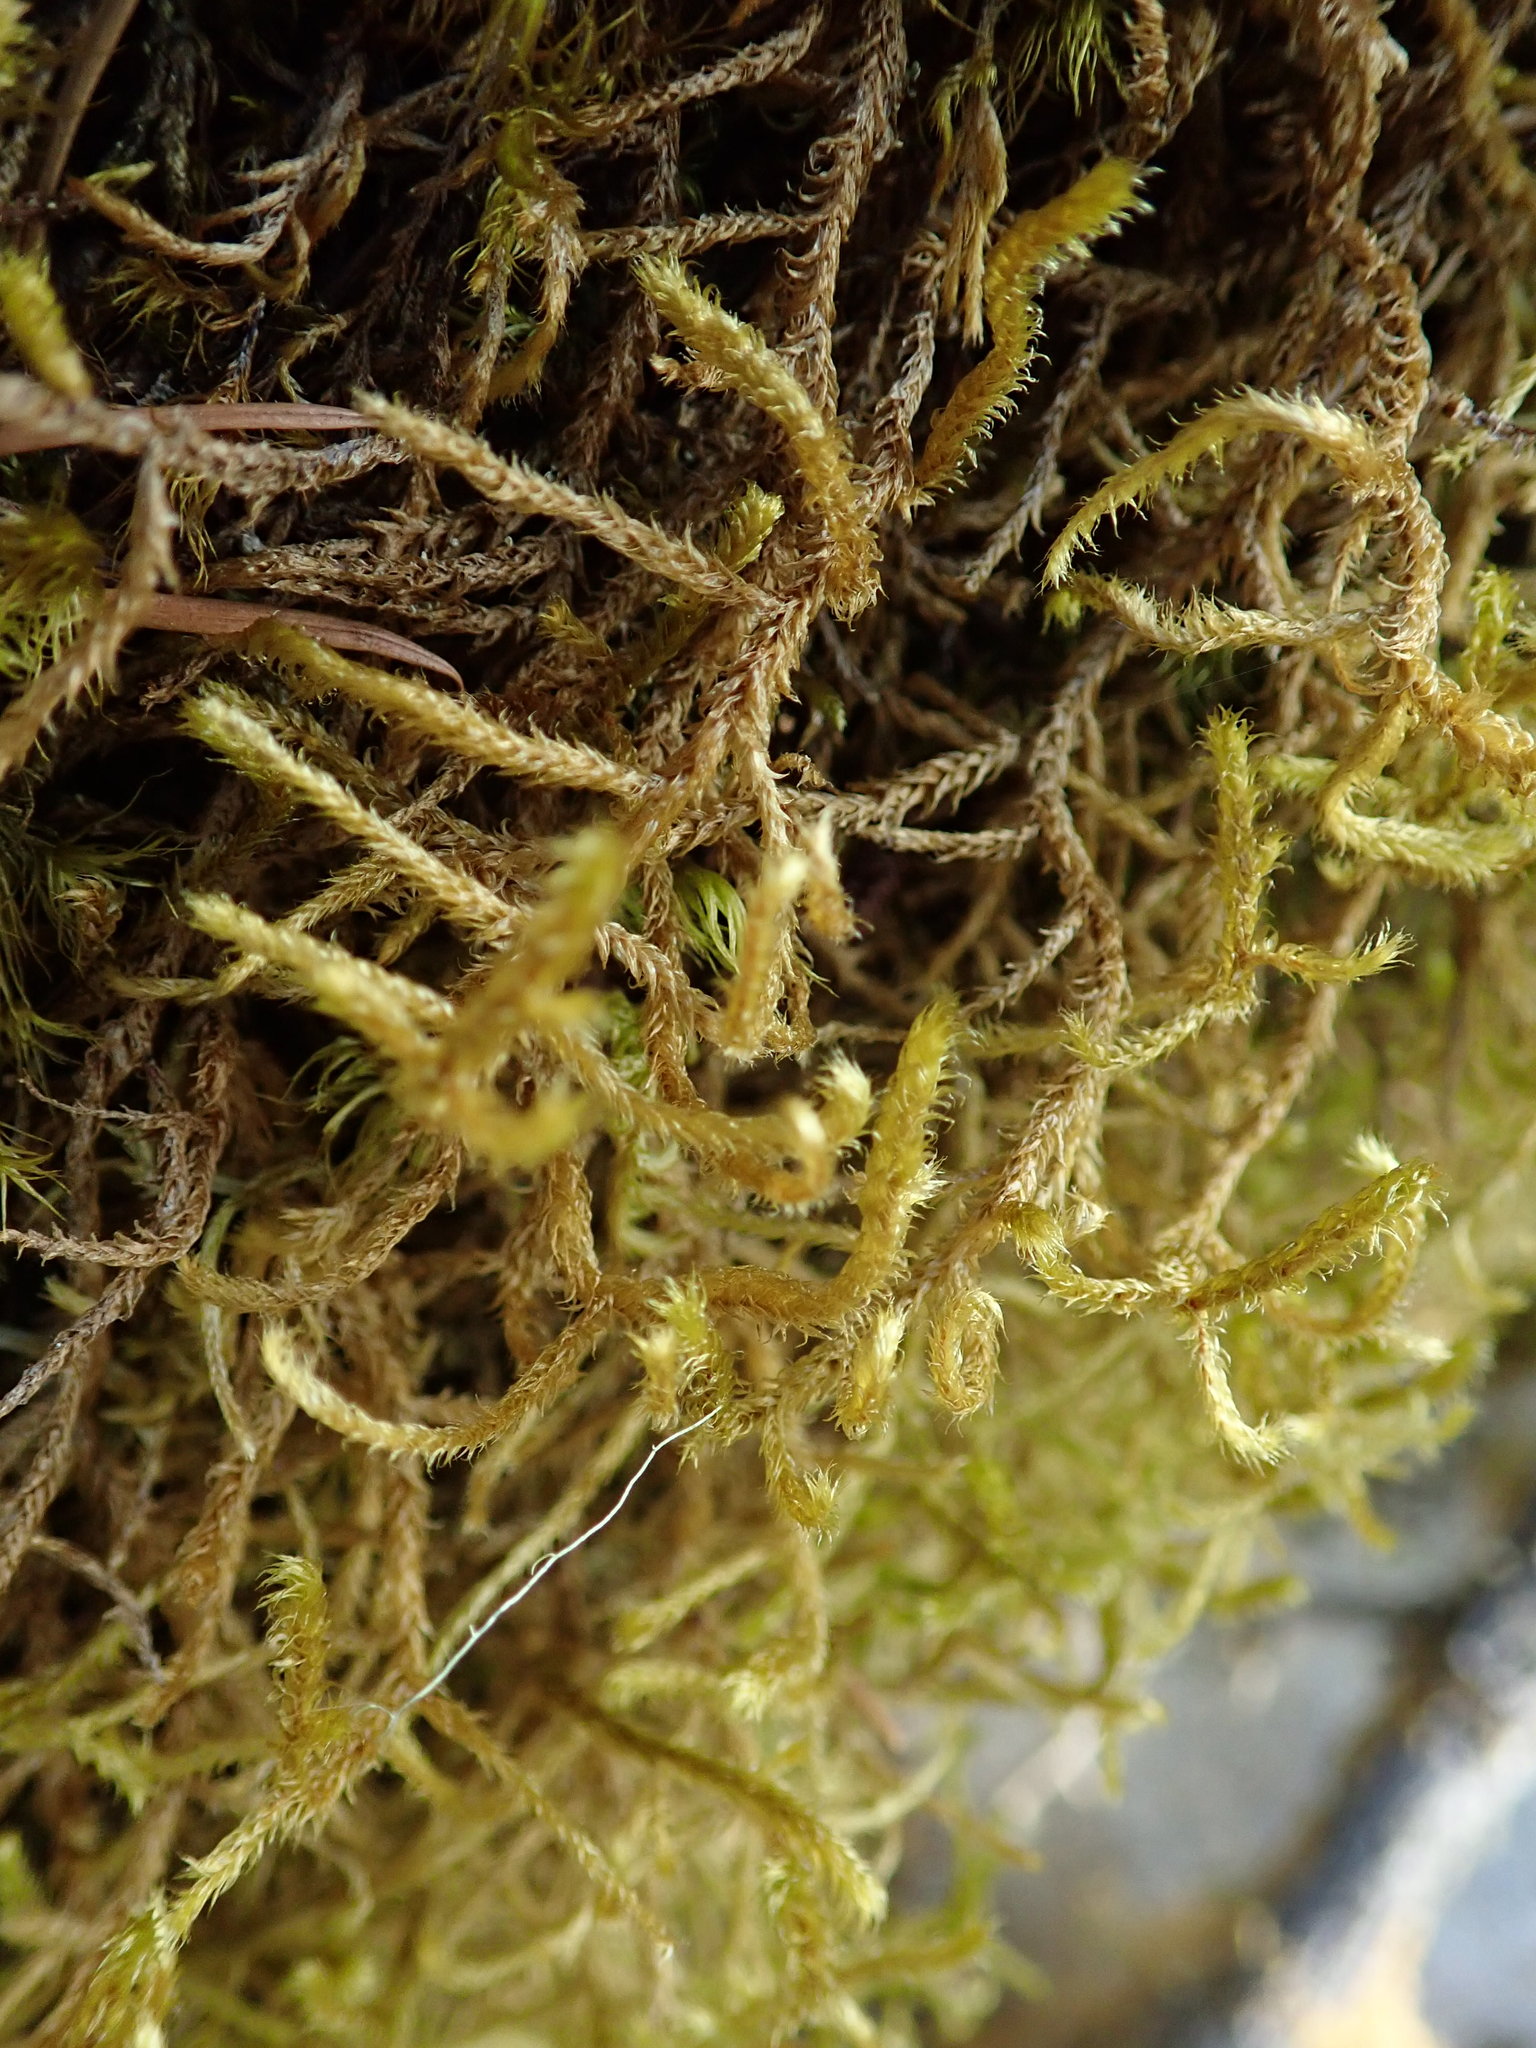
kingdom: Plantae
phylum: Bryophyta
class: Bryopsida
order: Hypnales
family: Antitrichiaceae
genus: Antitrichia
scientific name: Antitrichia curtipendula
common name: Pendulous wing-moss
